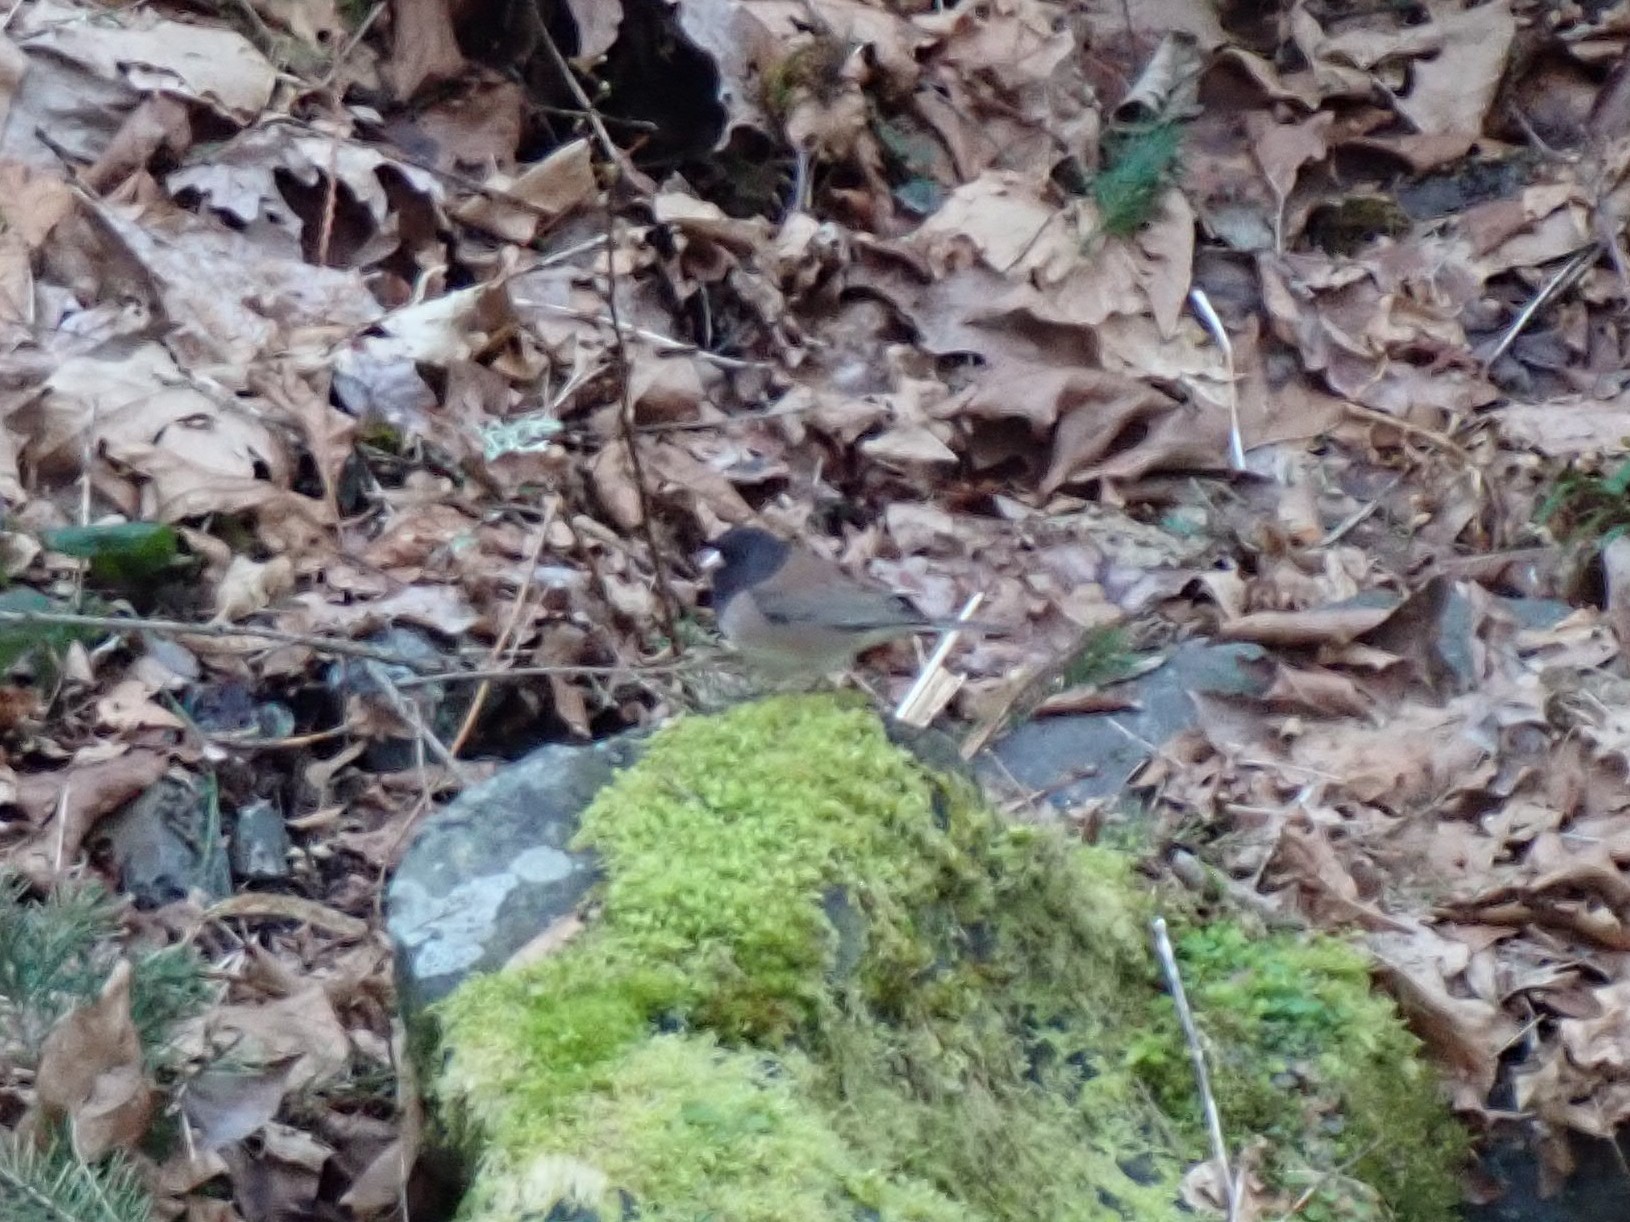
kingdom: Animalia
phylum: Chordata
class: Aves
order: Passeriformes
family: Passerellidae
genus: Junco
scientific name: Junco hyemalis
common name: Dark-eyed junco
